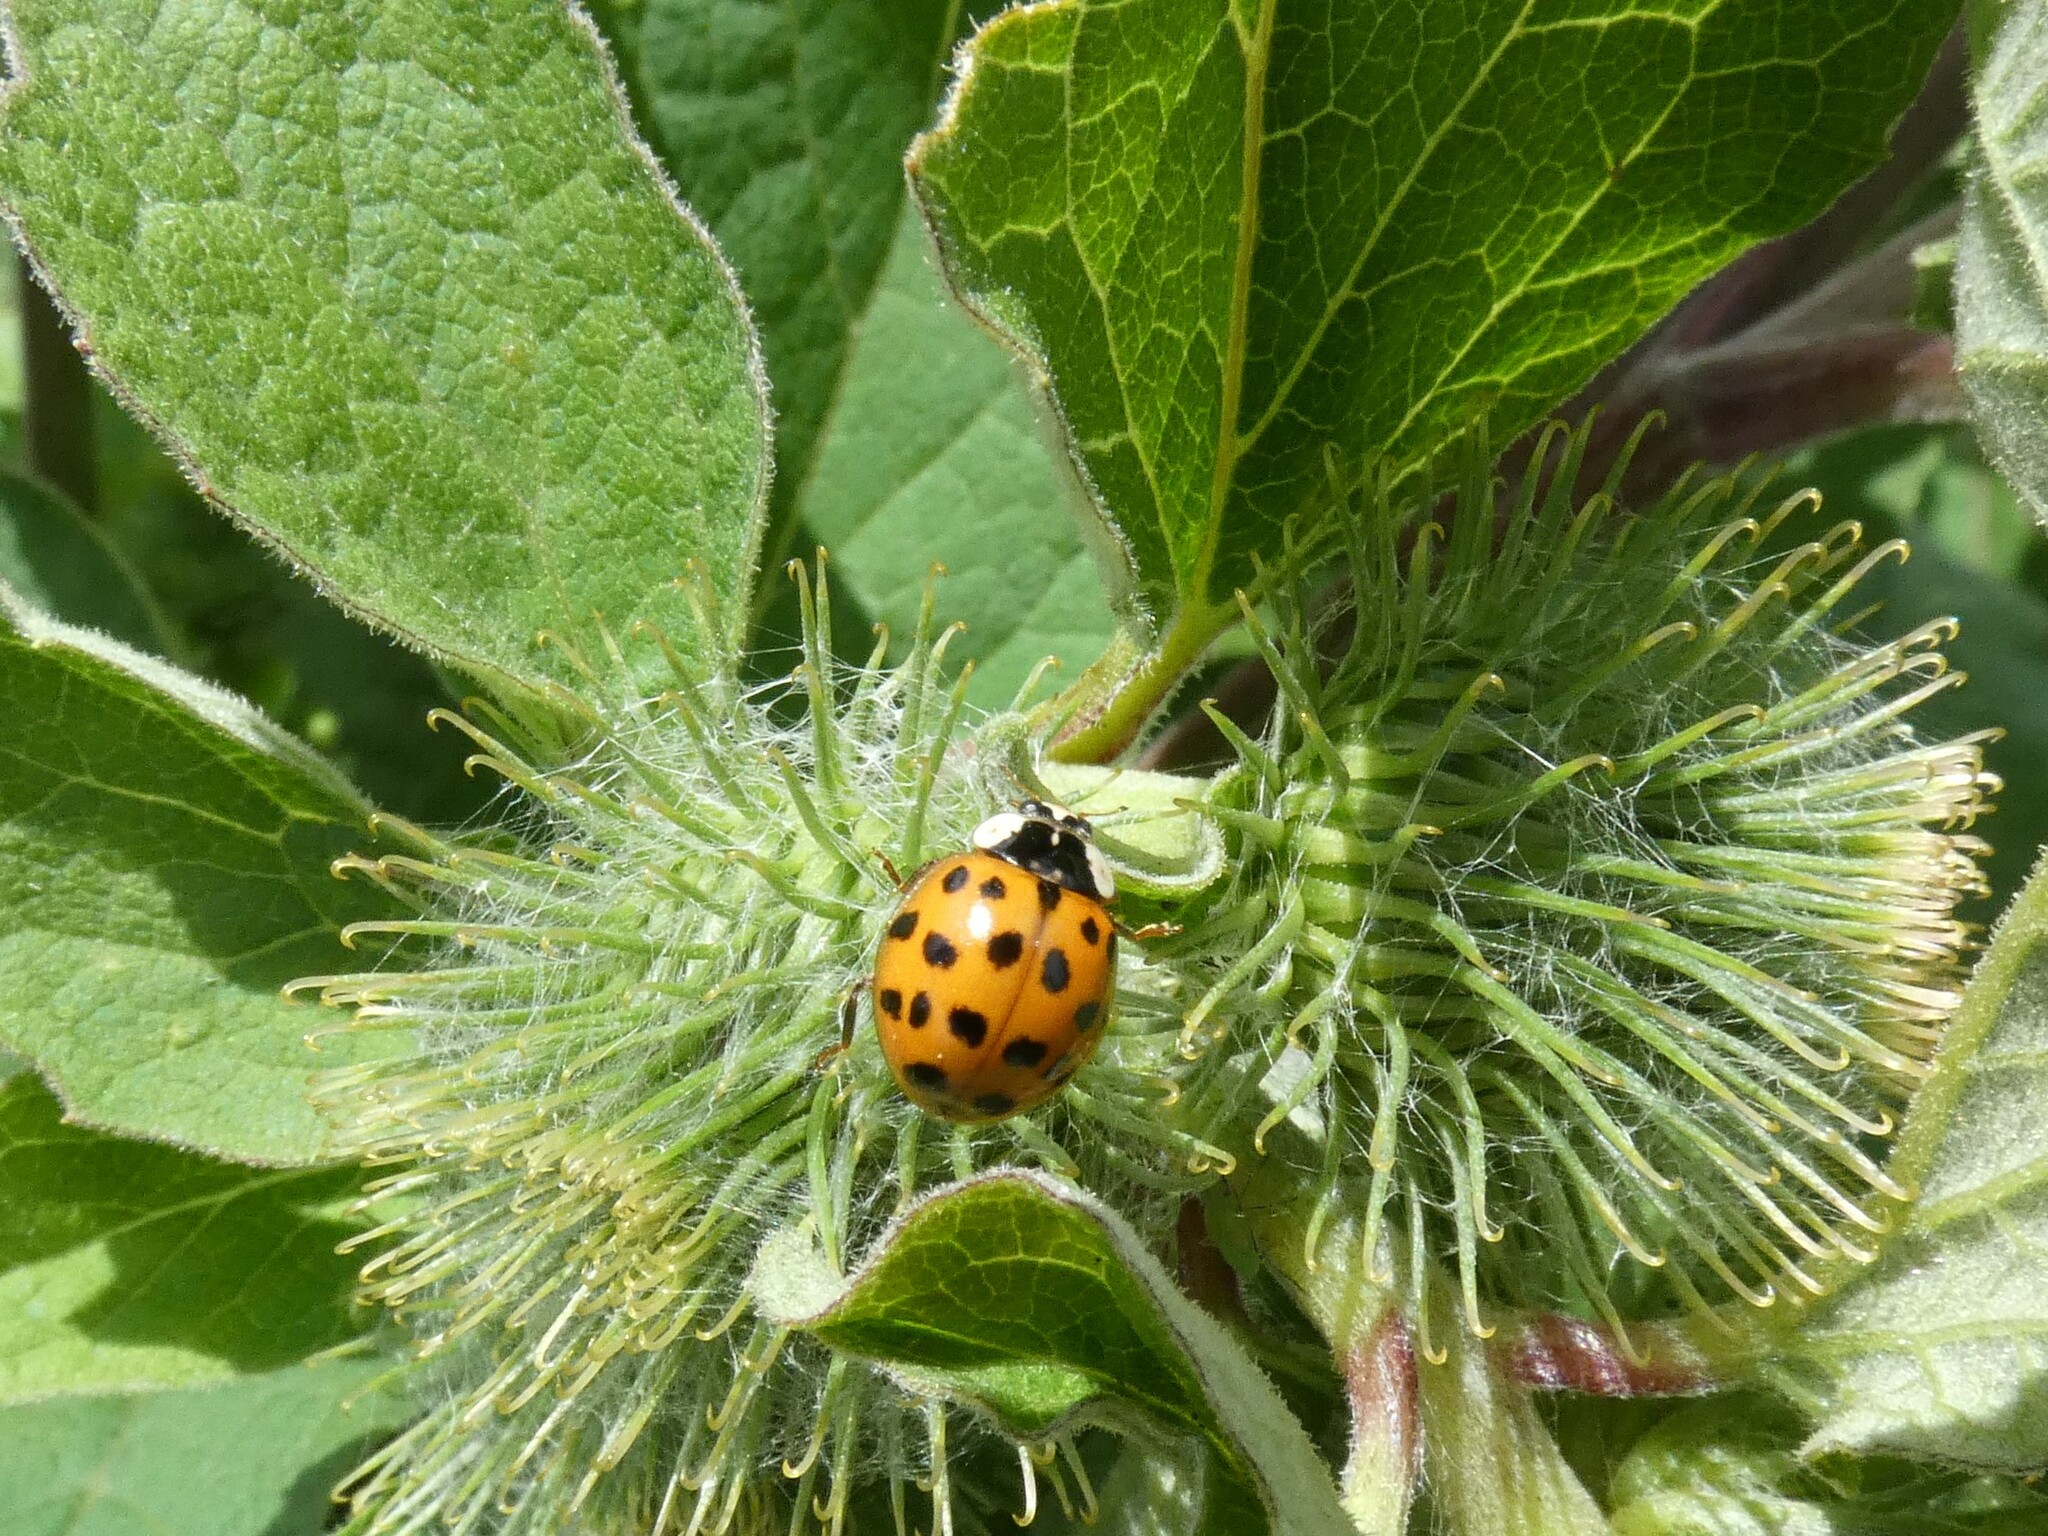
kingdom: Animalia
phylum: Arthropoda
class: Insecta
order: Coleoptera
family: Coccinellidae
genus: Harmonia
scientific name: Harmonia axyridis
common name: Harlequin ladybird
